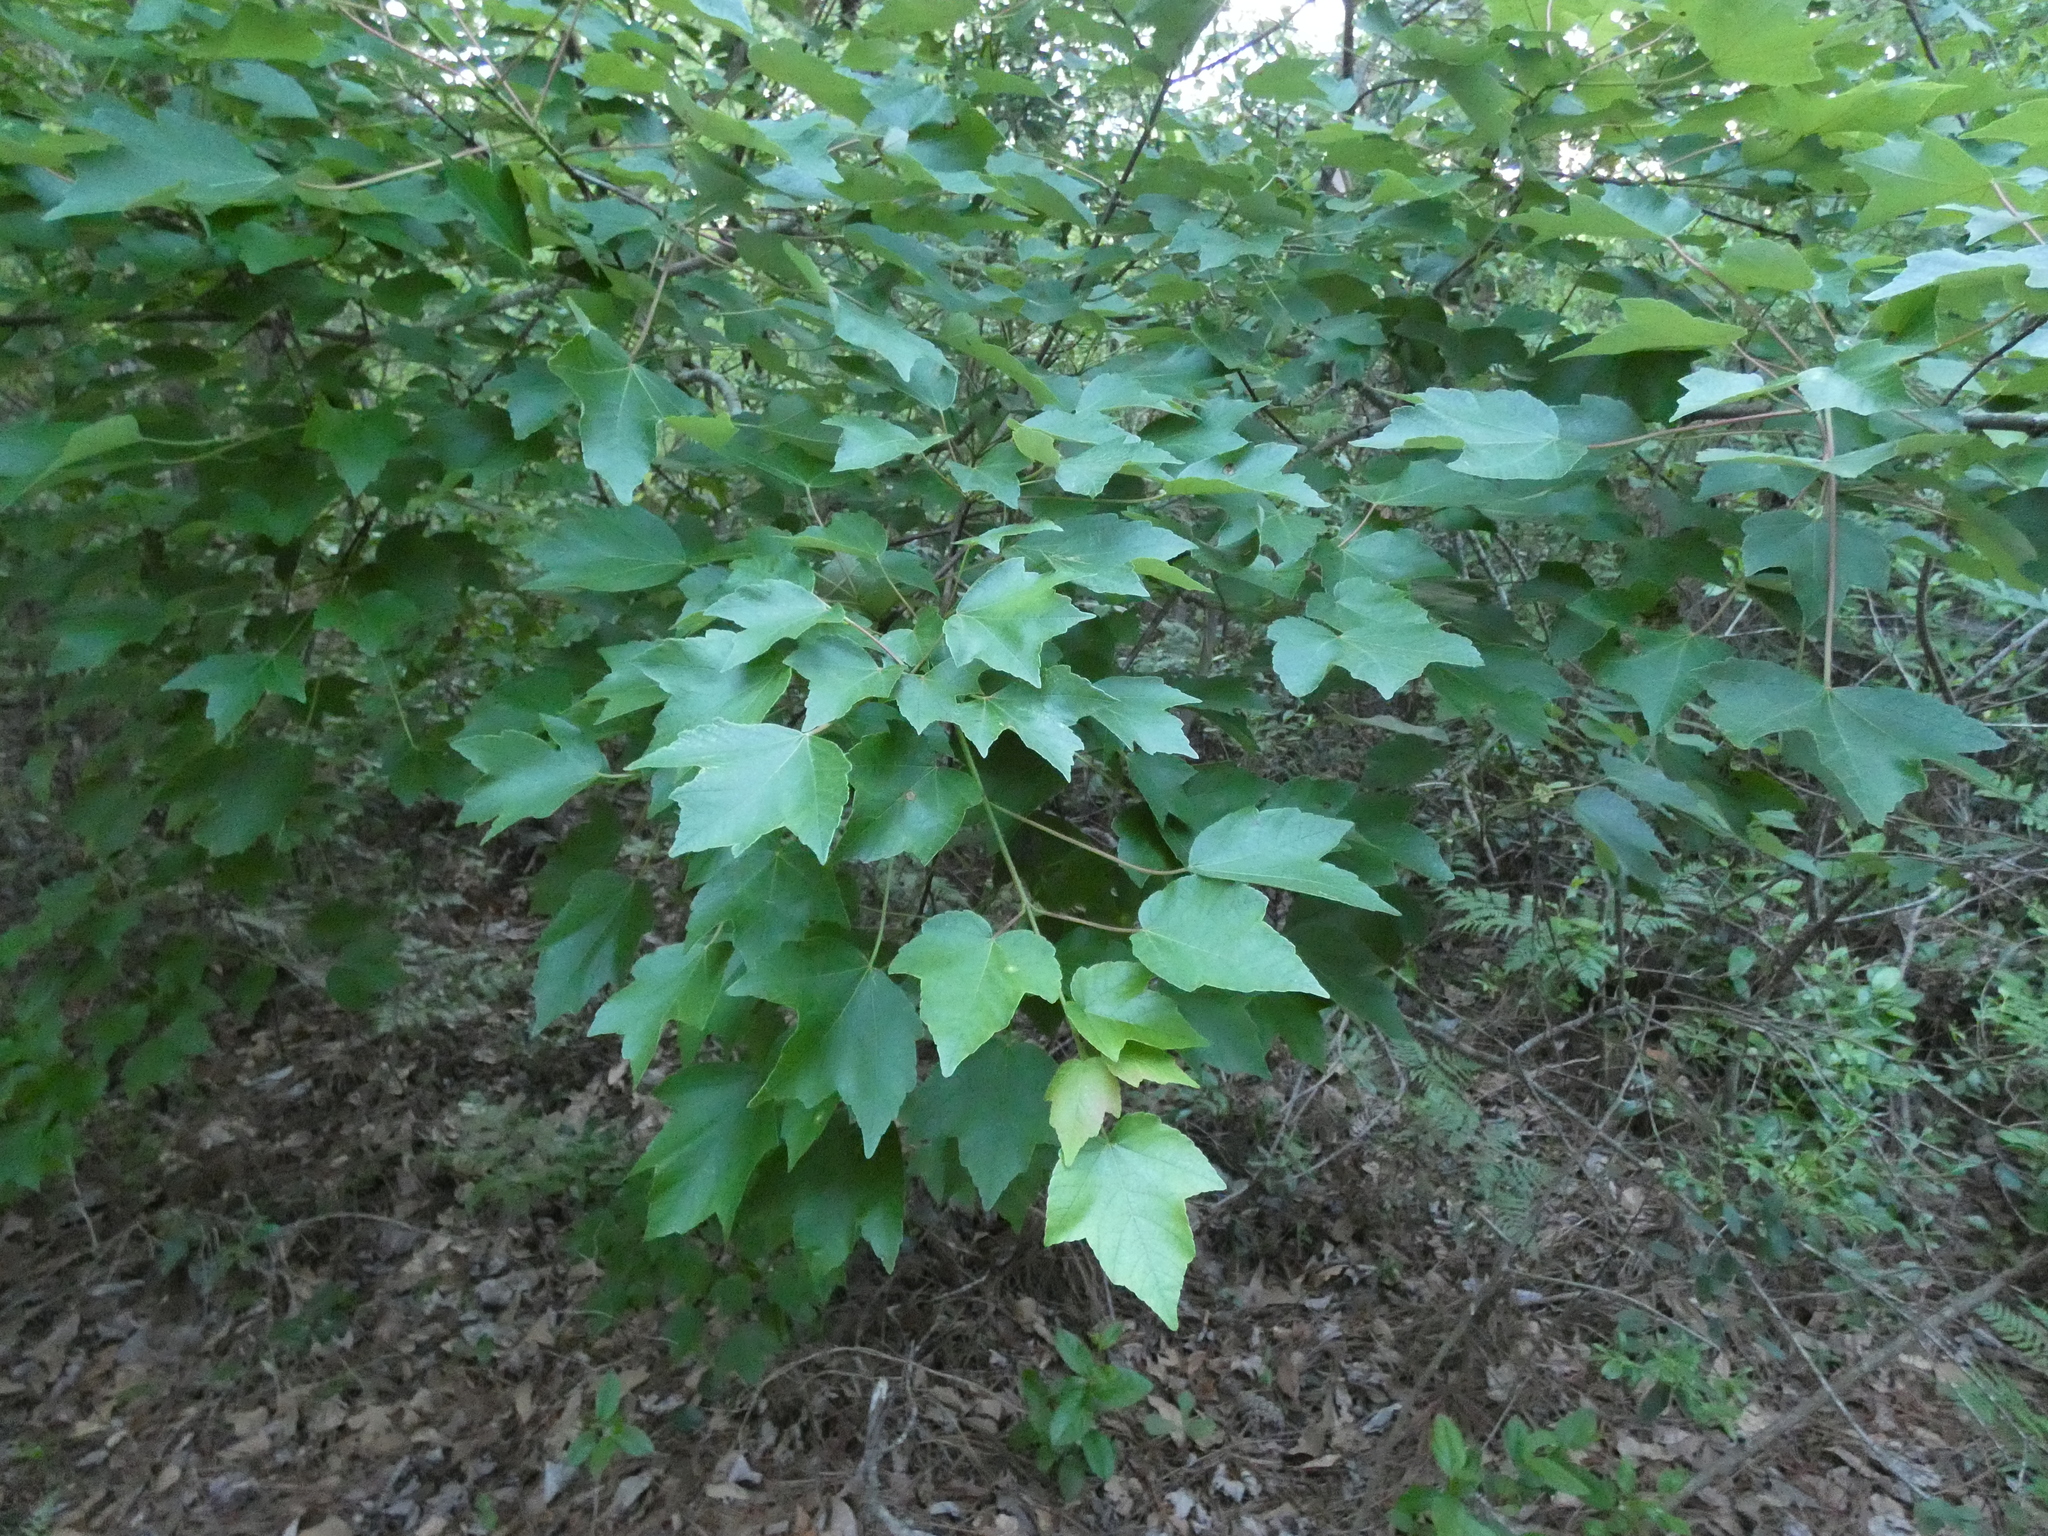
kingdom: Plantae
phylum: Tracheophyta
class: Magnoliopsida
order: Sapindales
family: Sapindaceae
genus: Acer
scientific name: Acer rubrum
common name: Red maple
